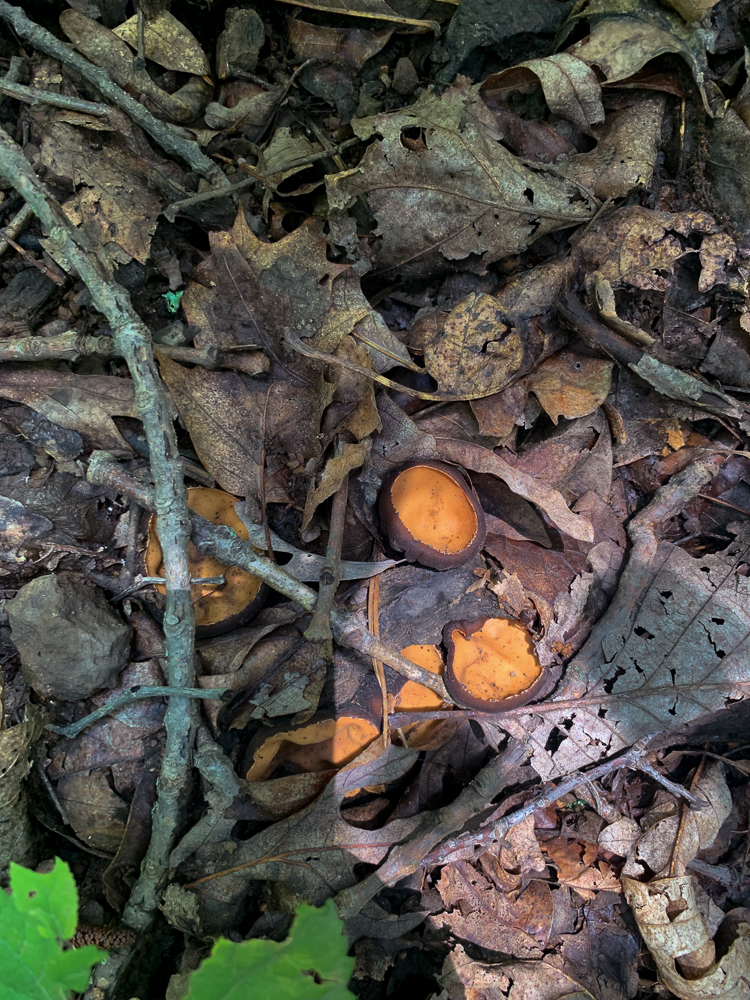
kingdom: Fungi
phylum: Ascomycota
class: Pezizomycetes
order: Pezizales
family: Sarcosomataceae
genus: Galiella
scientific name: Galiella rufa
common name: Hairy rubber cup
